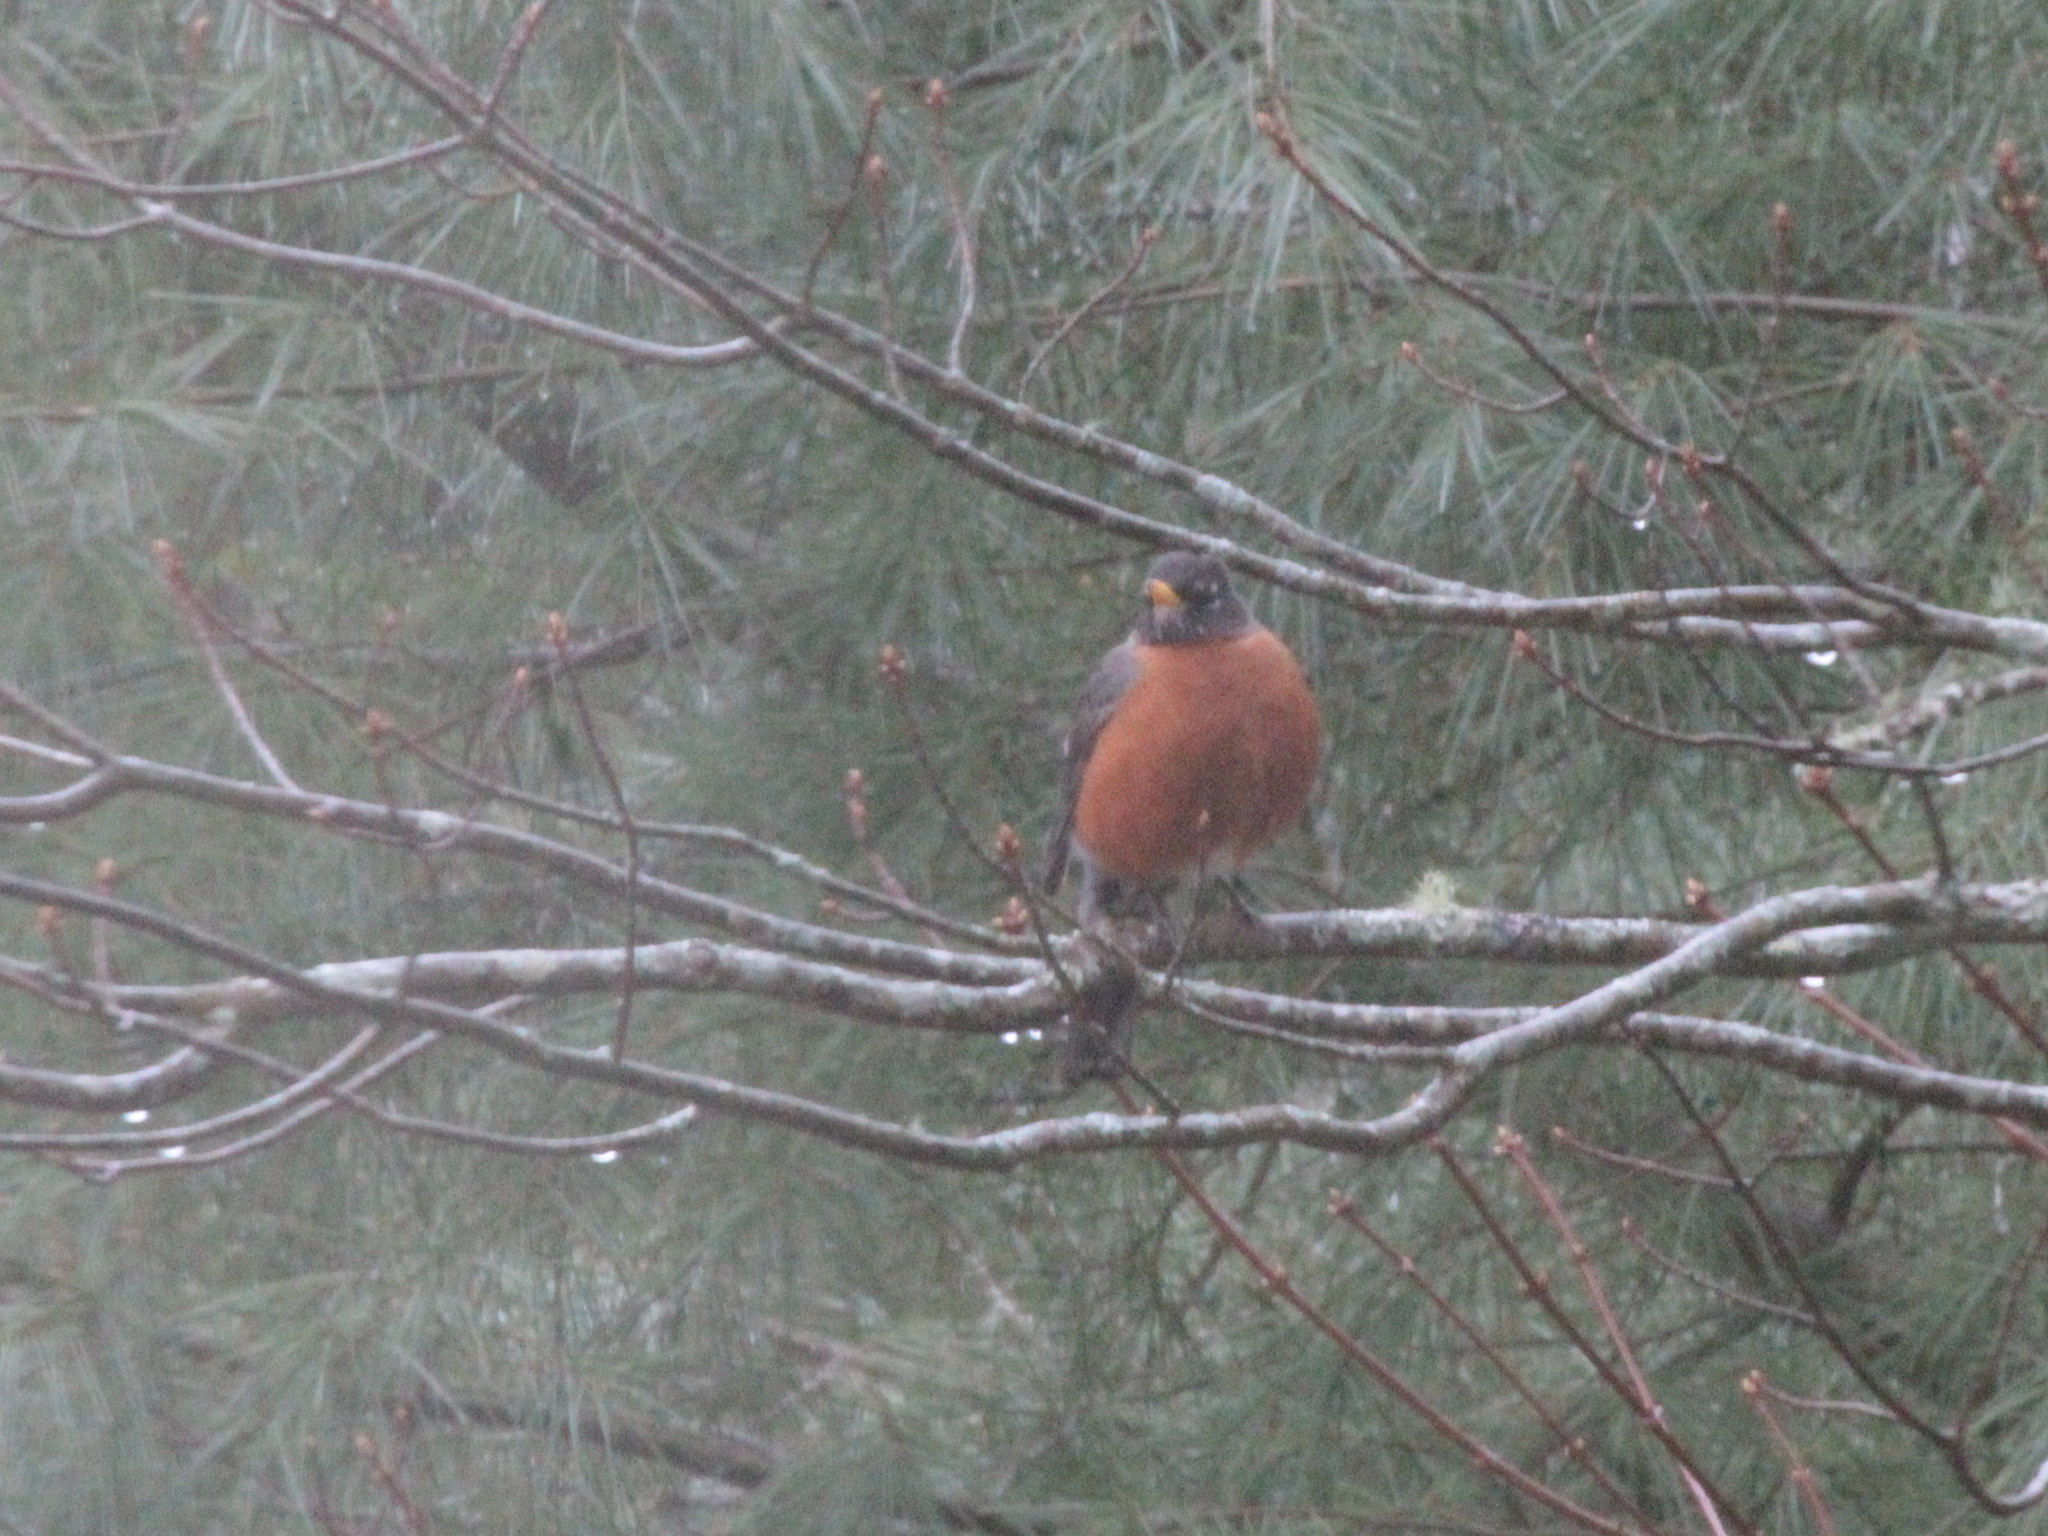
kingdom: Animalia
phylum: Chordata
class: Aves
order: Passeriformes
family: Turdidae
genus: Turdus
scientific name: Turdus migratorius
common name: American robin
